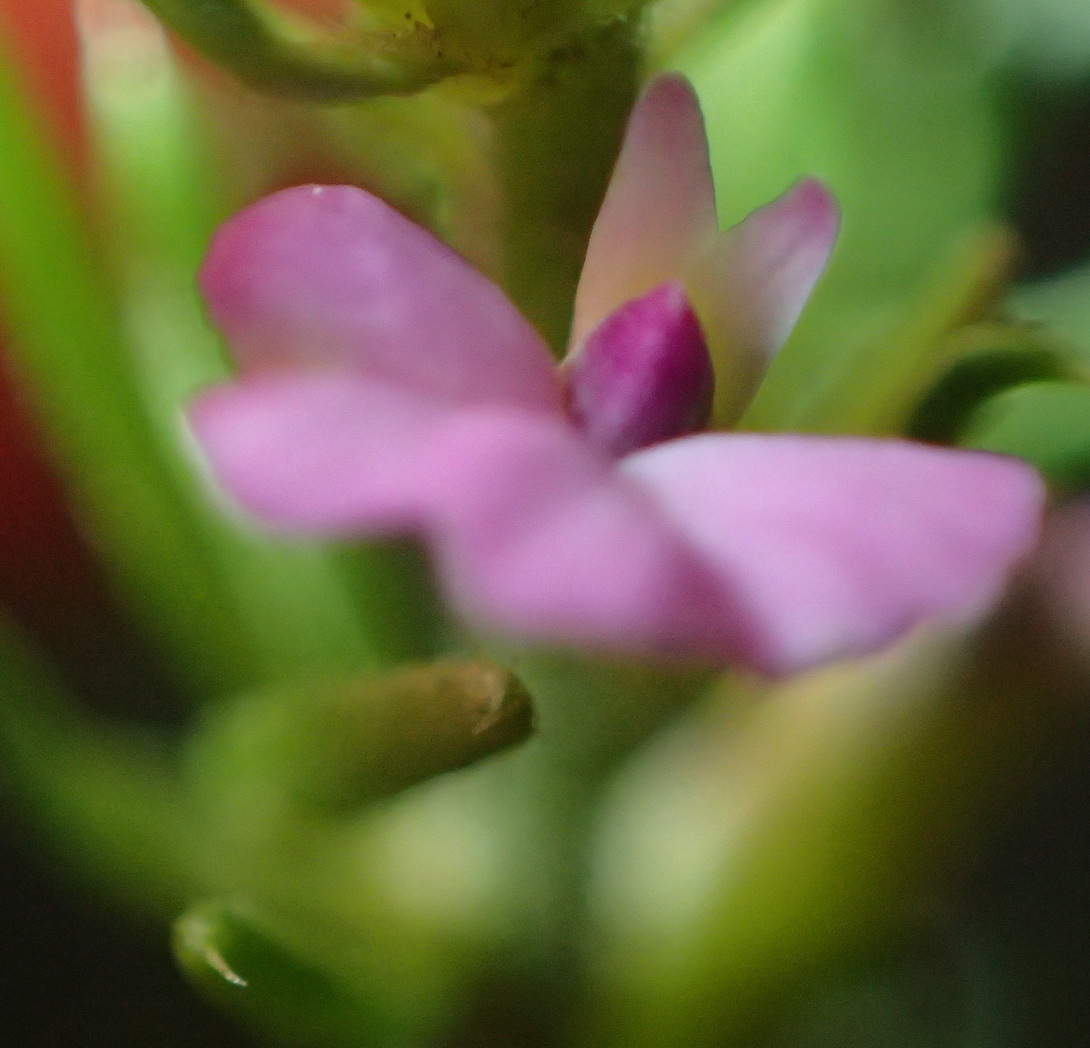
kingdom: Plantae
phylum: Tracheophyta
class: Magnoliopsida
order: Fabales
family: Polygalaceae
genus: Muraltia
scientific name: Muraltia alopecuroides
